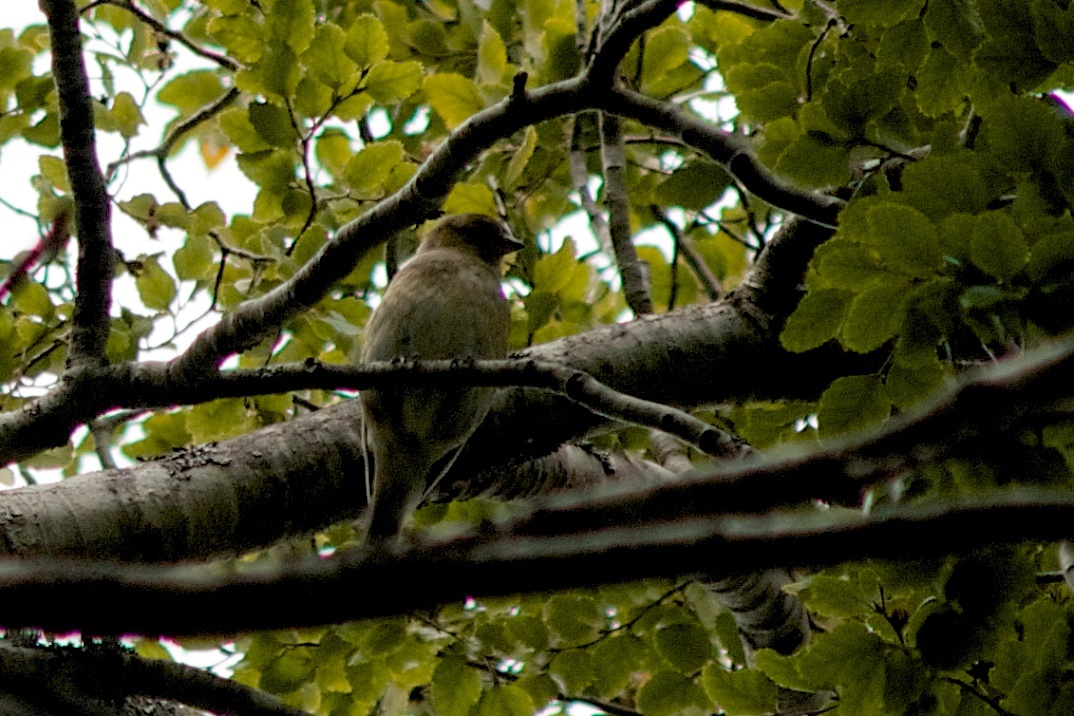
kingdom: Plantae
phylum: Tracheophyta
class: Liliopsida
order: Poales
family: Poaceae
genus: Chloris
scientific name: Chloris chloris
